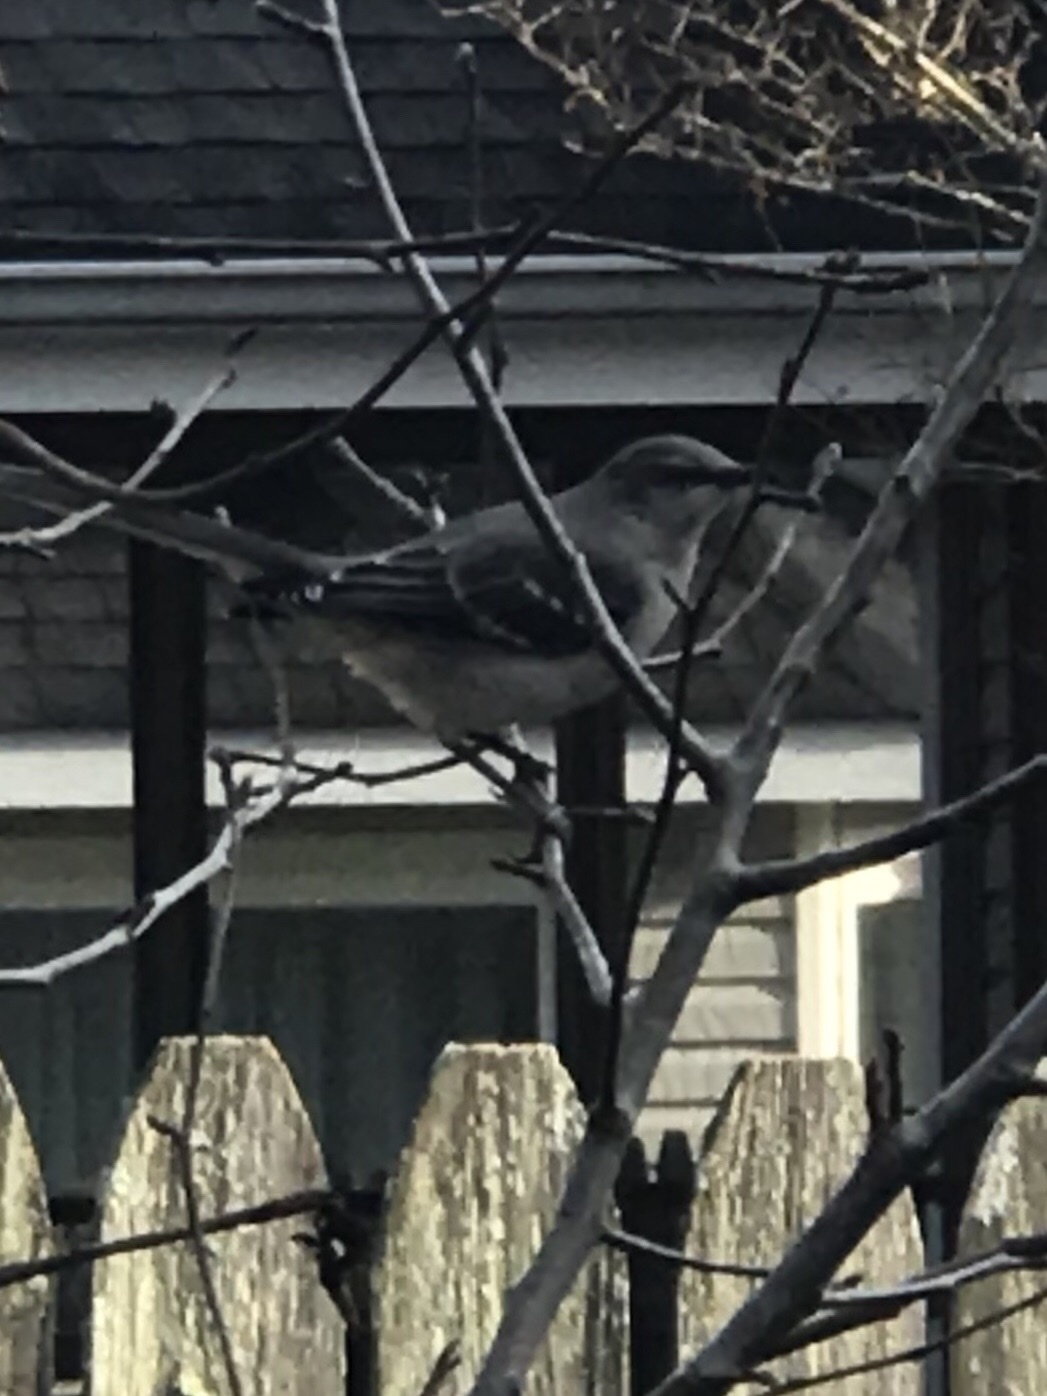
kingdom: Animalia
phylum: Chordata
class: Aves
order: Passeriformes
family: Mimidae
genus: Mimus
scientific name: Mimus polyglottos
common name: Northern mockingbird
